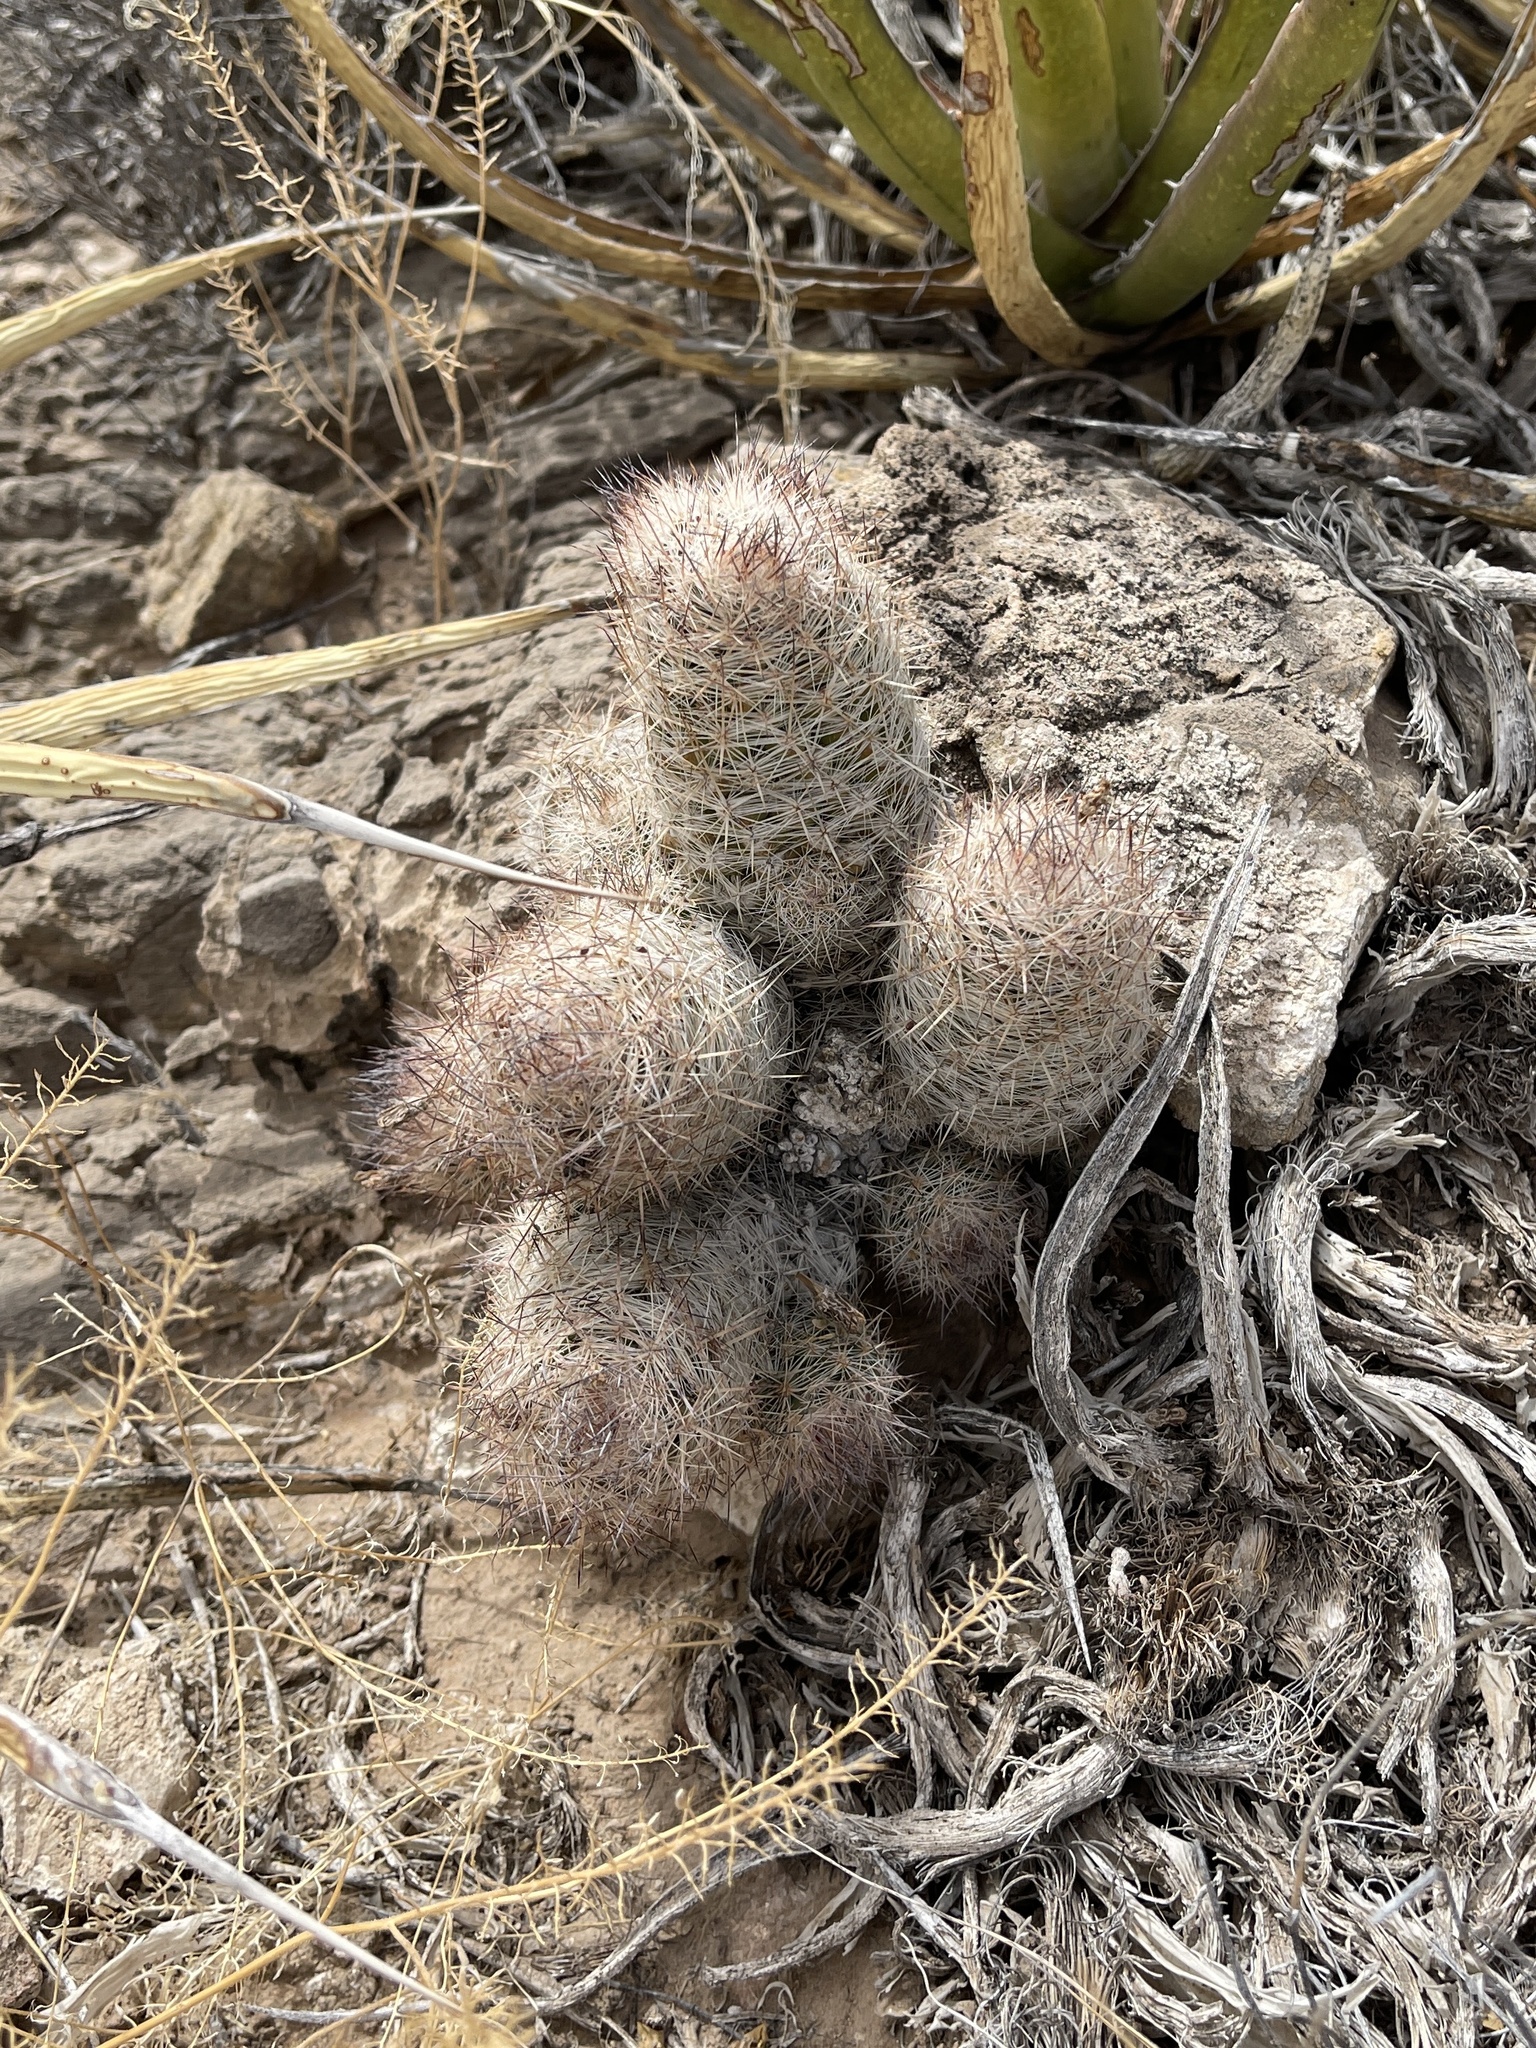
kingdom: Plantae
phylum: Tracheophyta
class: Magnoliopsida
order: Caryophyllales
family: Cactaceae
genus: Pelecyphora
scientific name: Pelecyphora tuberculosa
